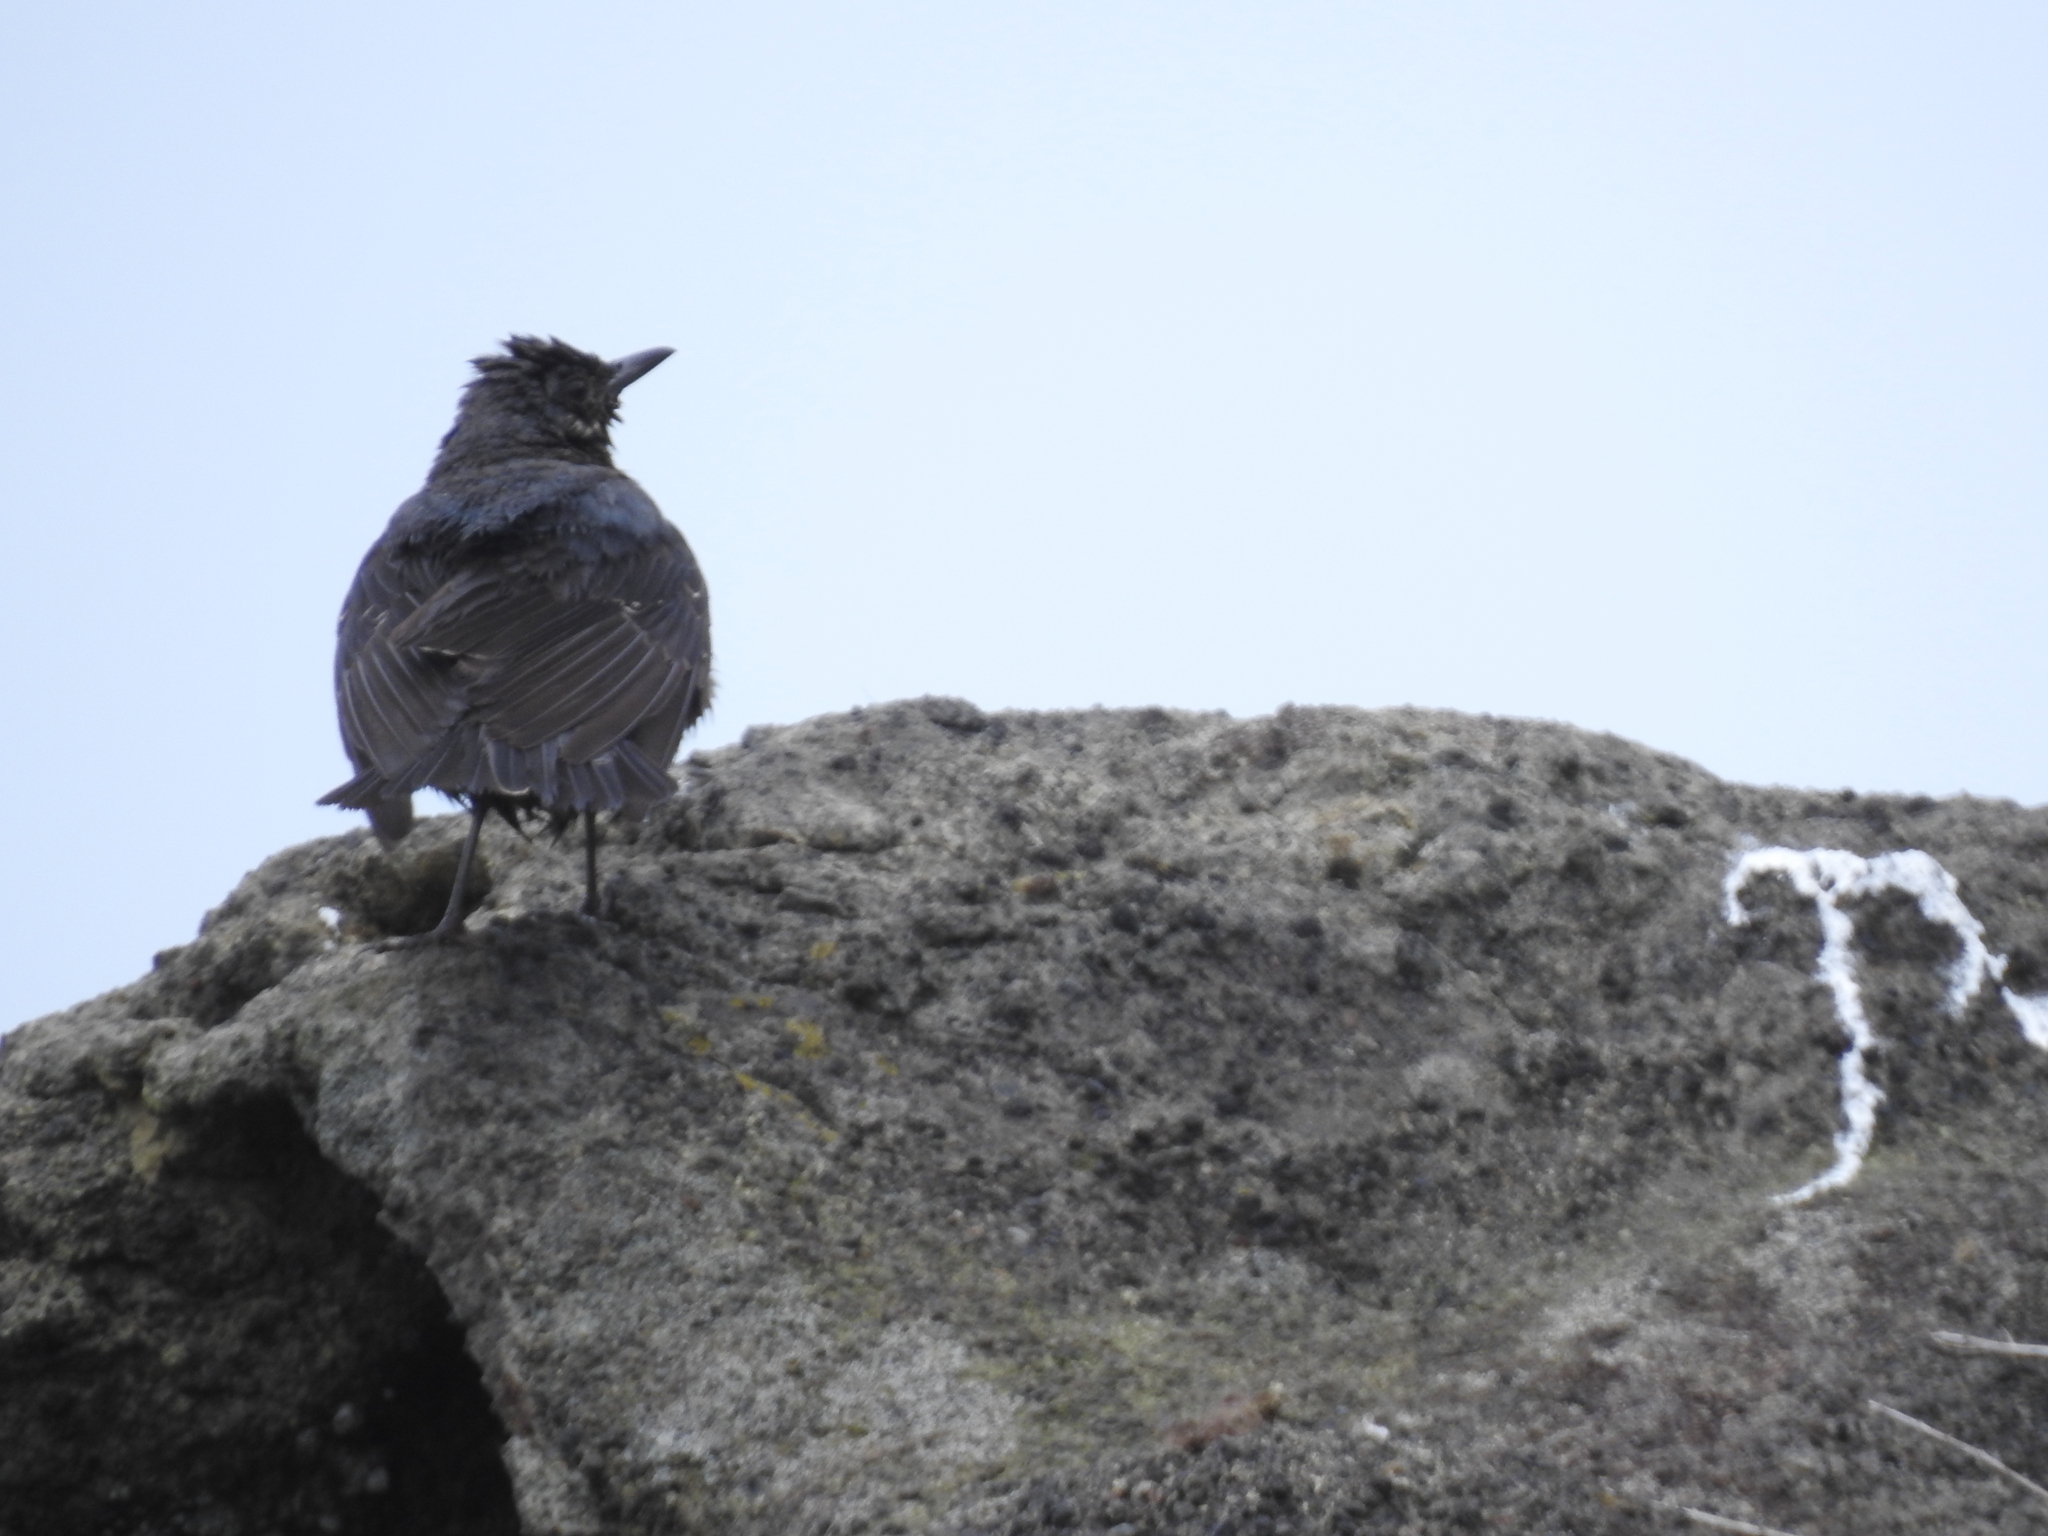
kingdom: Animalia
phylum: Chordata
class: Aves
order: Passeriformes
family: Muscicapidae
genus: Monticola
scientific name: Monticola solitarius
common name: Blue rock thrush
